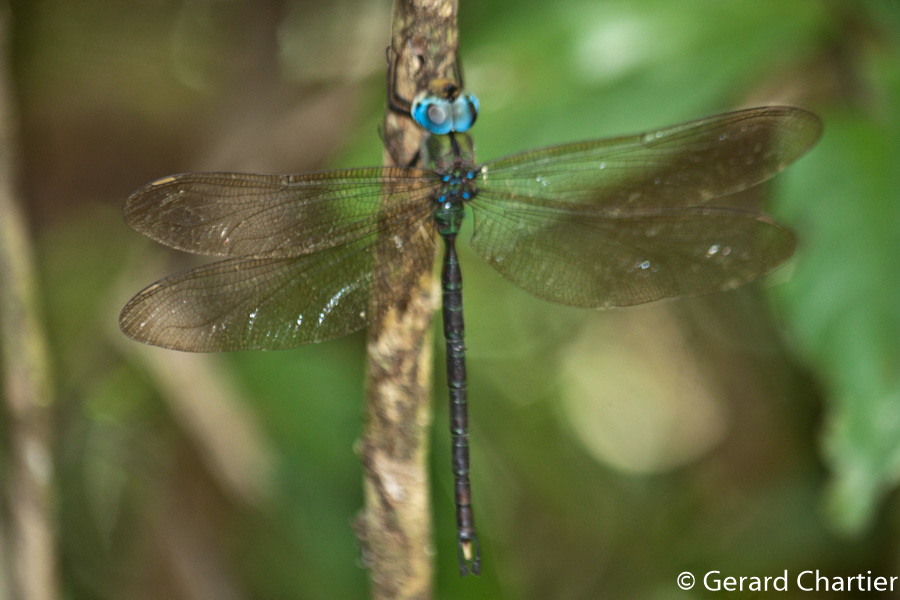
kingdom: Animalia
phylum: Arthropoda
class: Insecta
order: Odonata
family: Aeshnidae
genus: Gynacantha
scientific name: Gynacantha phaeomeria
